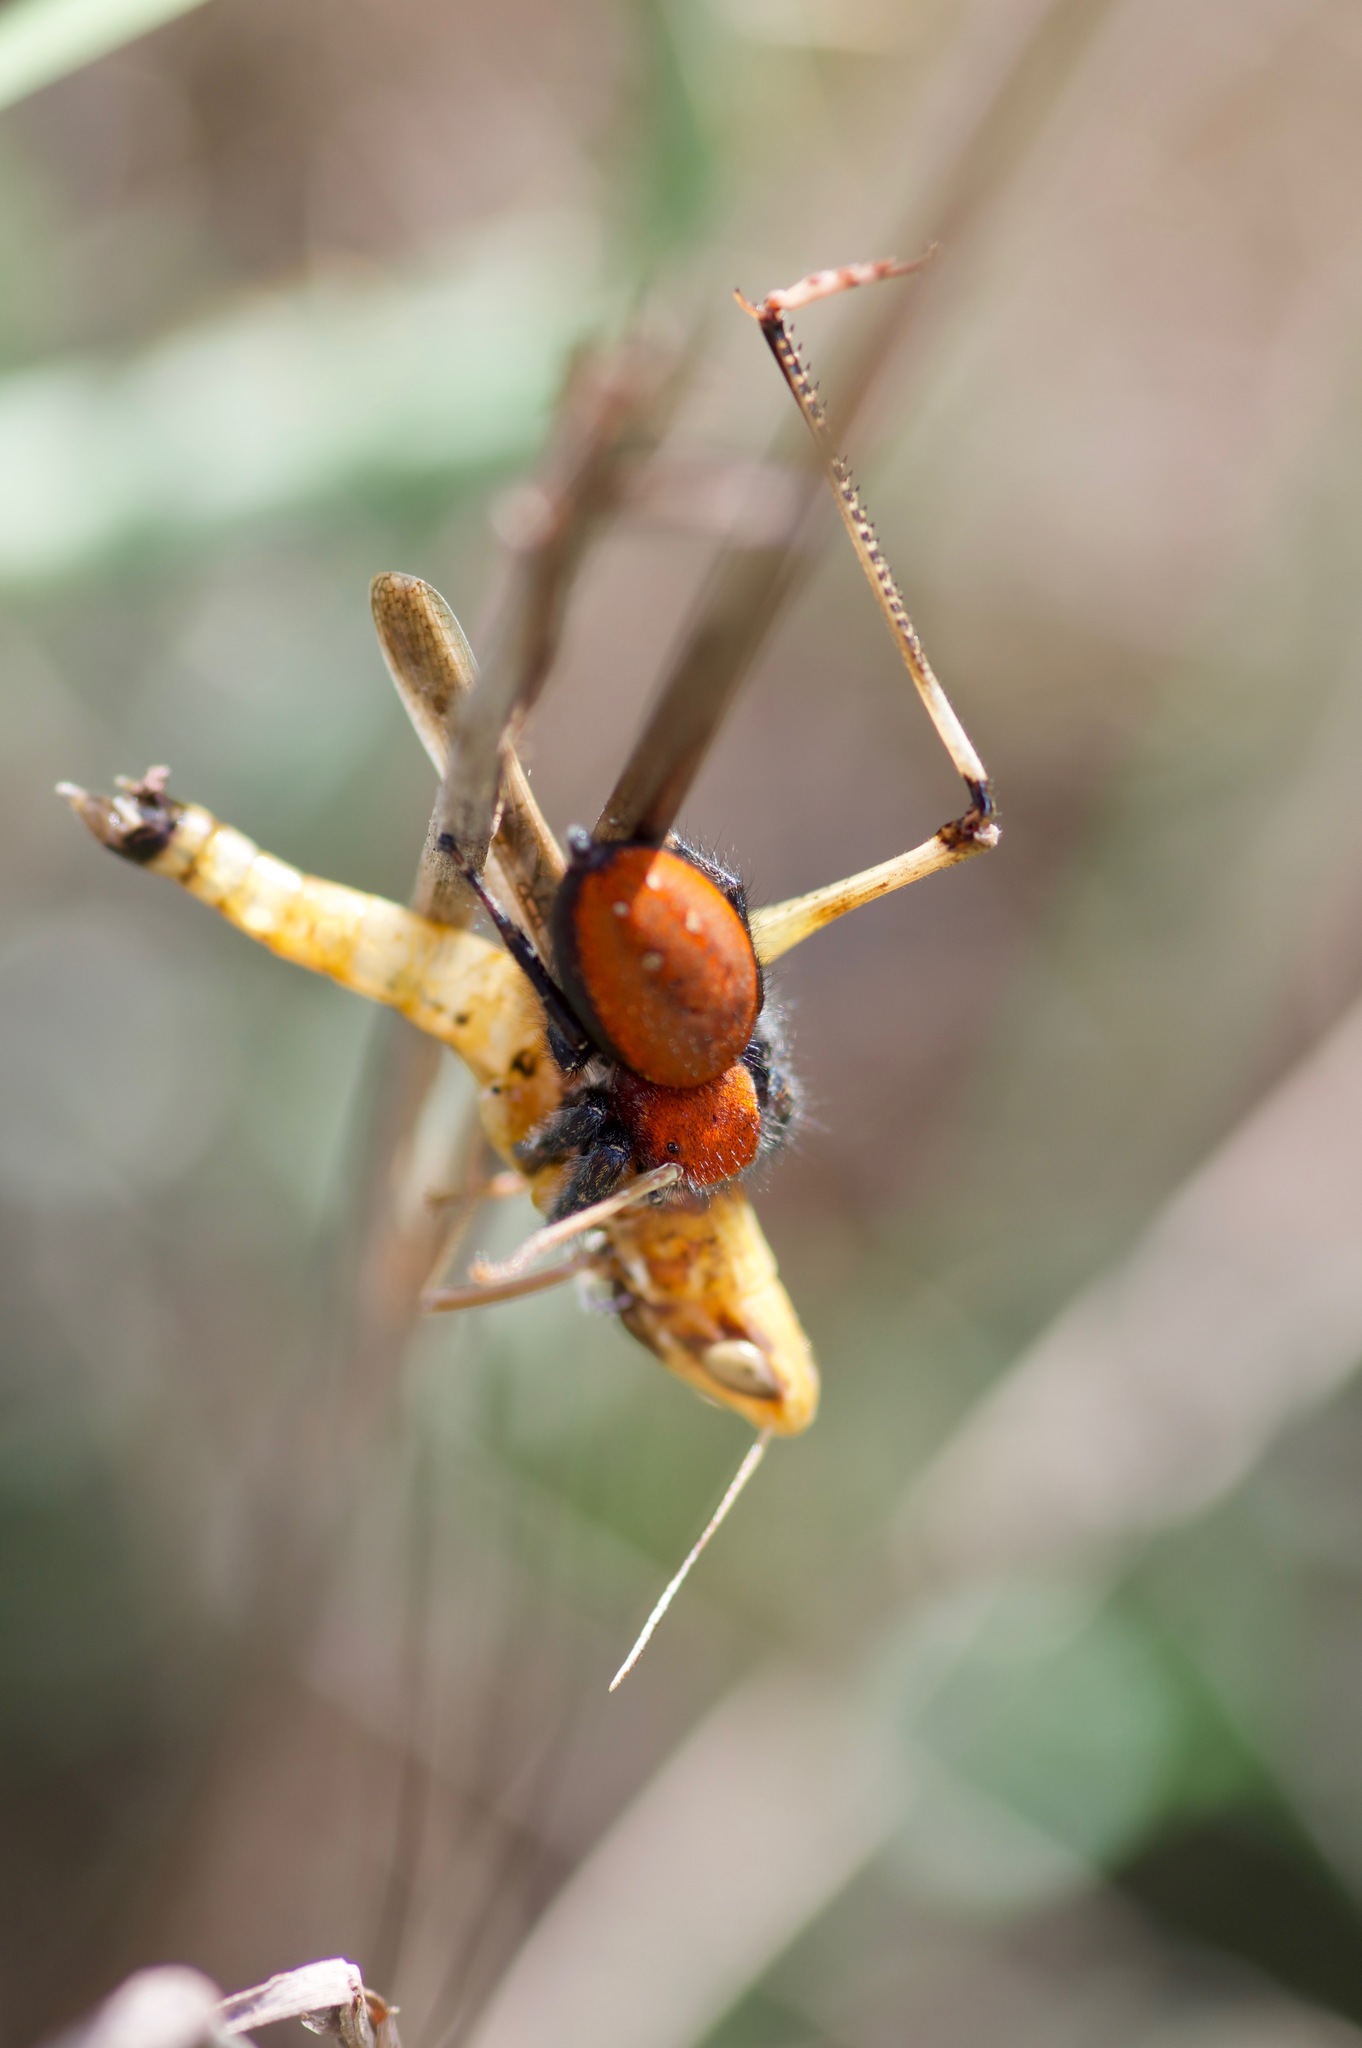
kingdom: Animalia
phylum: Arthropoda
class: Arachnida
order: Araneae
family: Salticidae
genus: Phidippus
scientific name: Phidippus cardinalis
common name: Cardinal jumper
